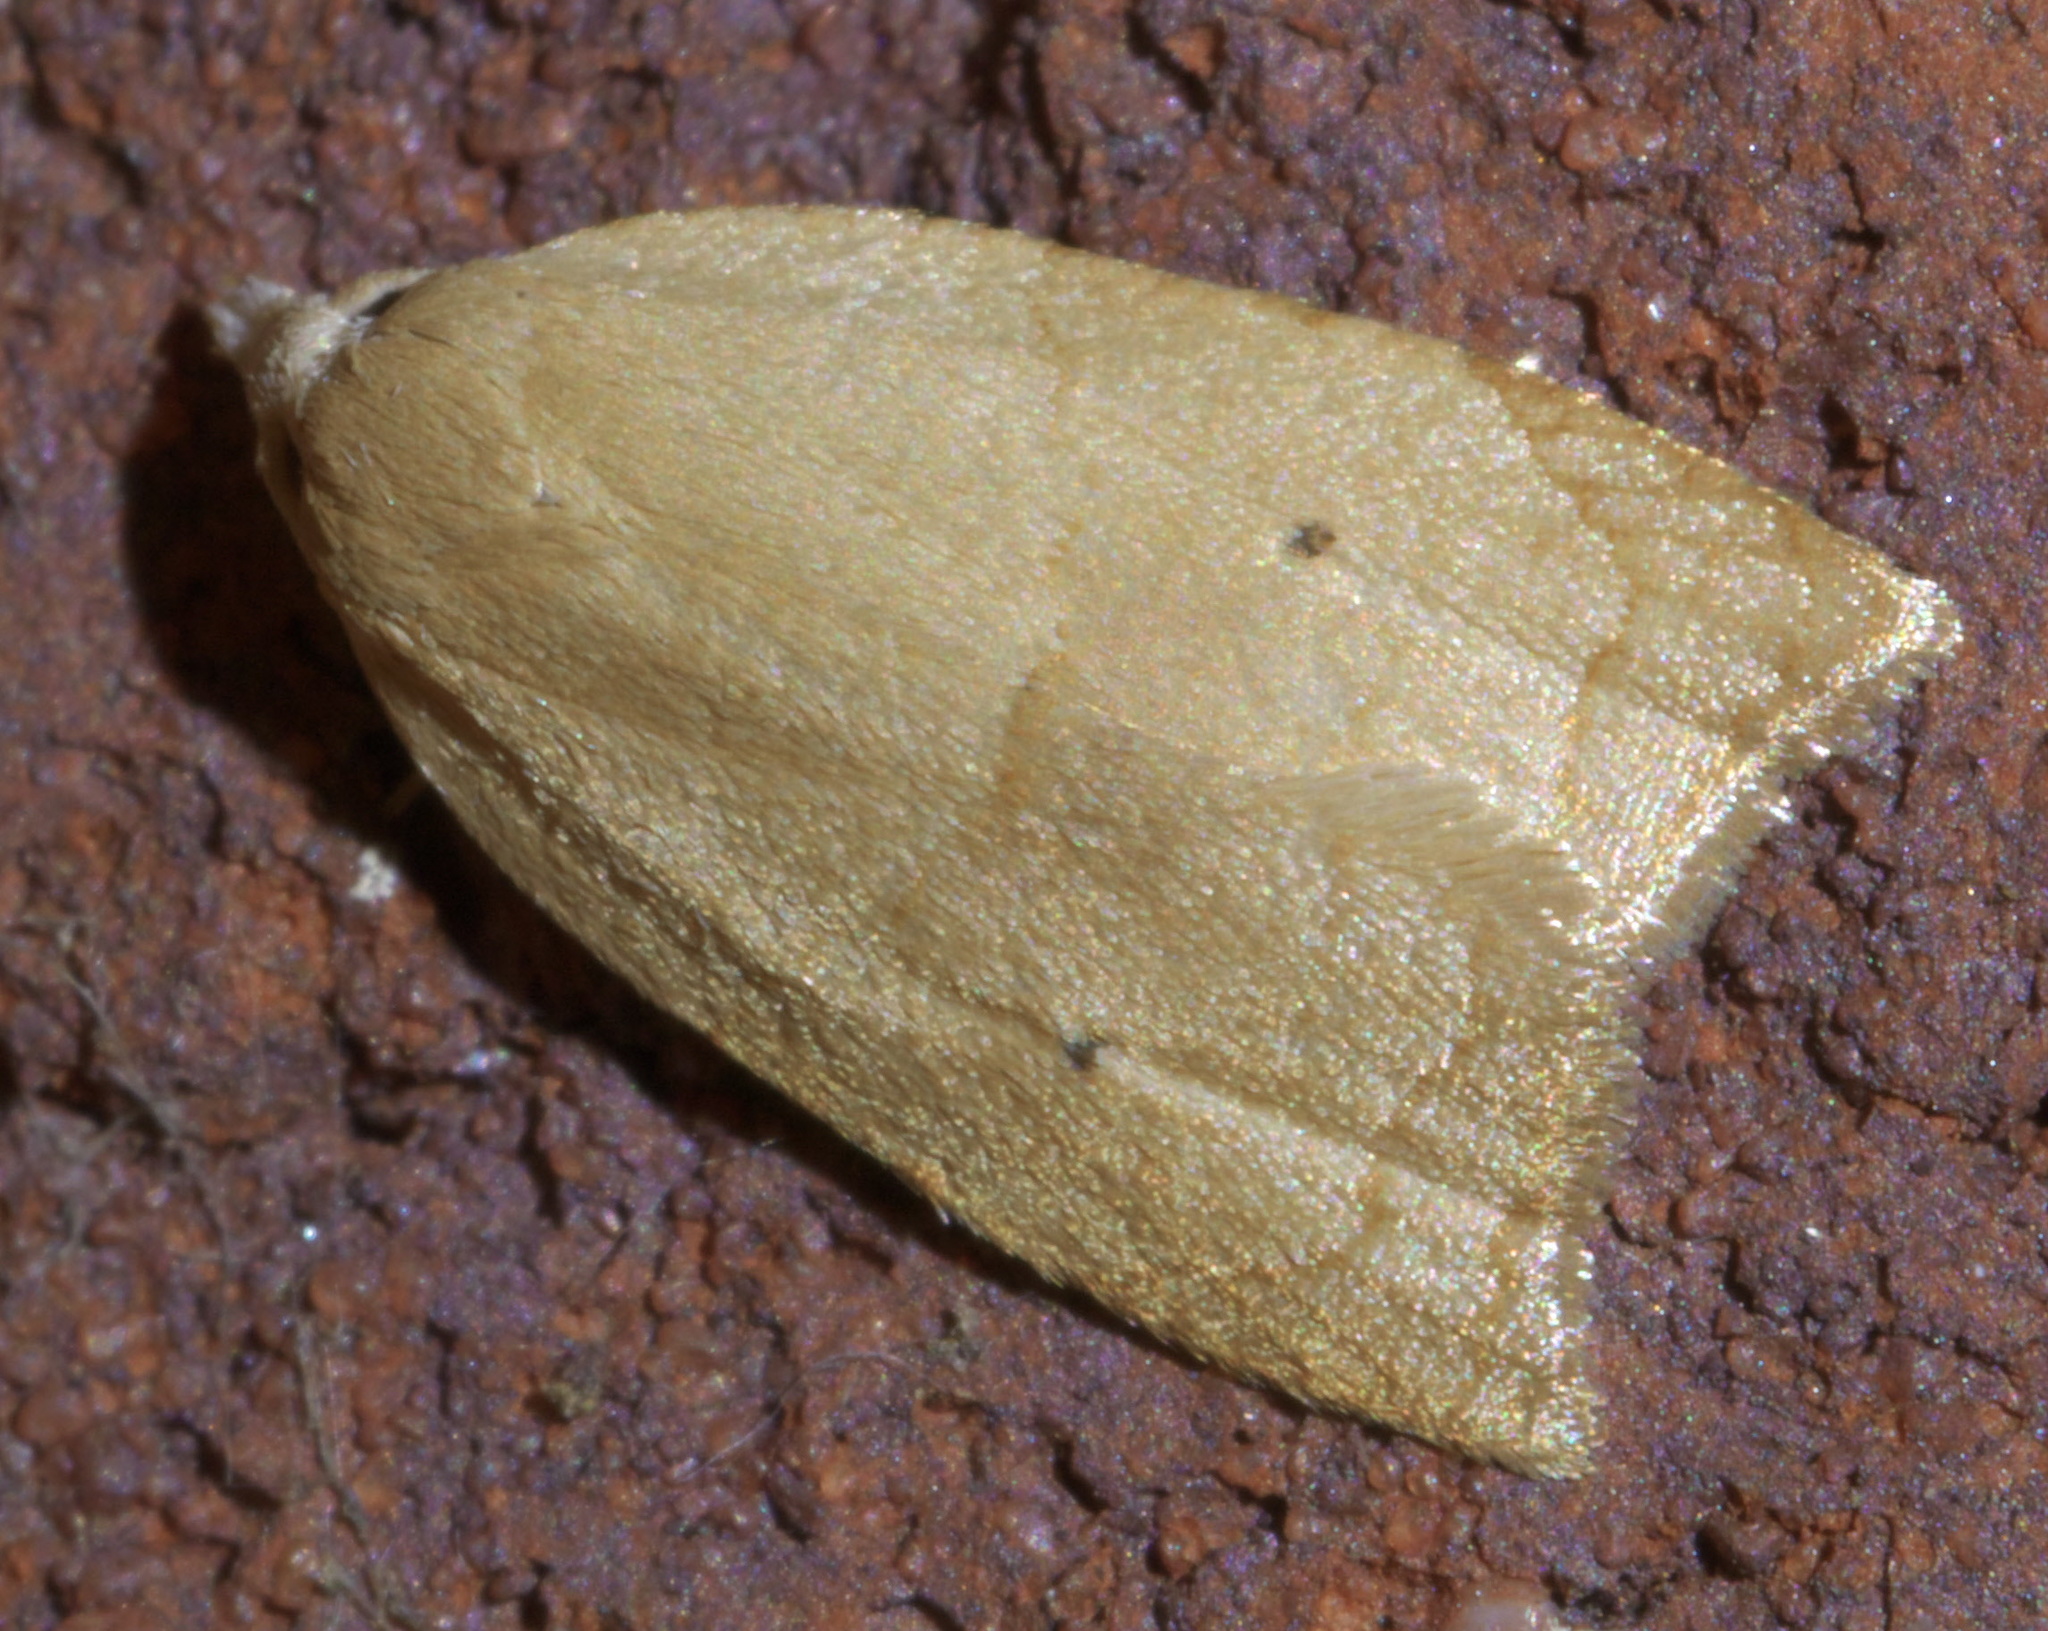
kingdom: Animalia
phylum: Arthropoda
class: Insecta
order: Lepidoptera
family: Tortricidae
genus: Coelostathma
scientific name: Coelostathma discopunctana
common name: Batman moth
